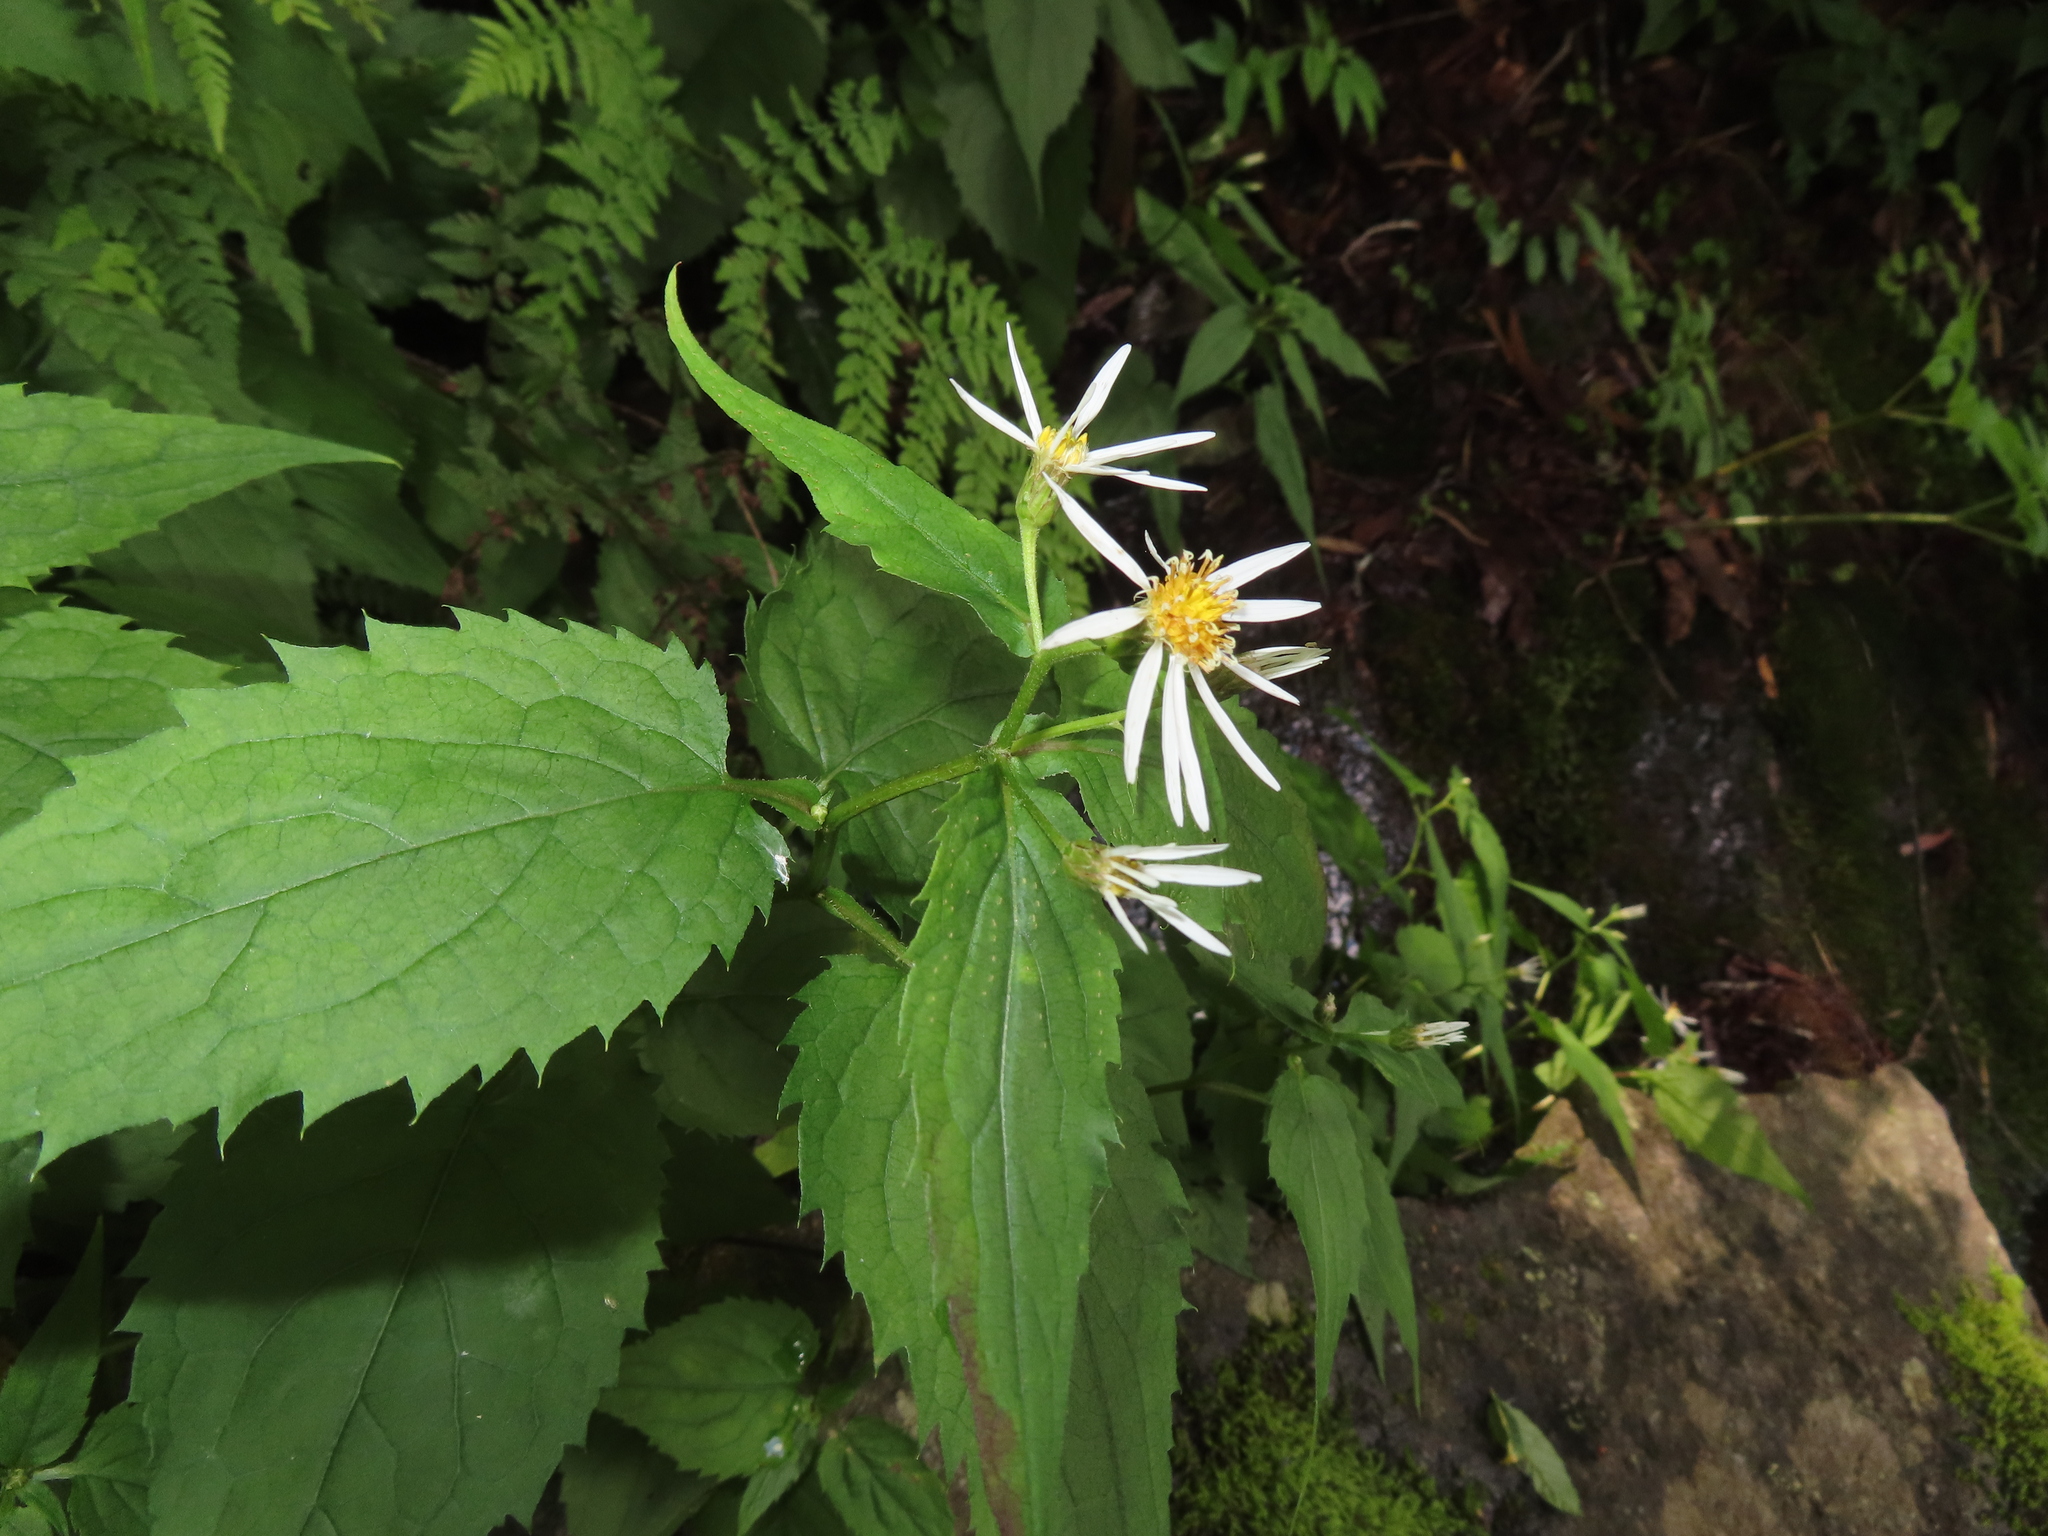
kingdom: Plantae
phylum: Tracheophyta
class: Magnoliopsida
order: Asterales
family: Asteraceae
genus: Oclemena
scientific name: Oclemena acuminata
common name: Mountain aster
